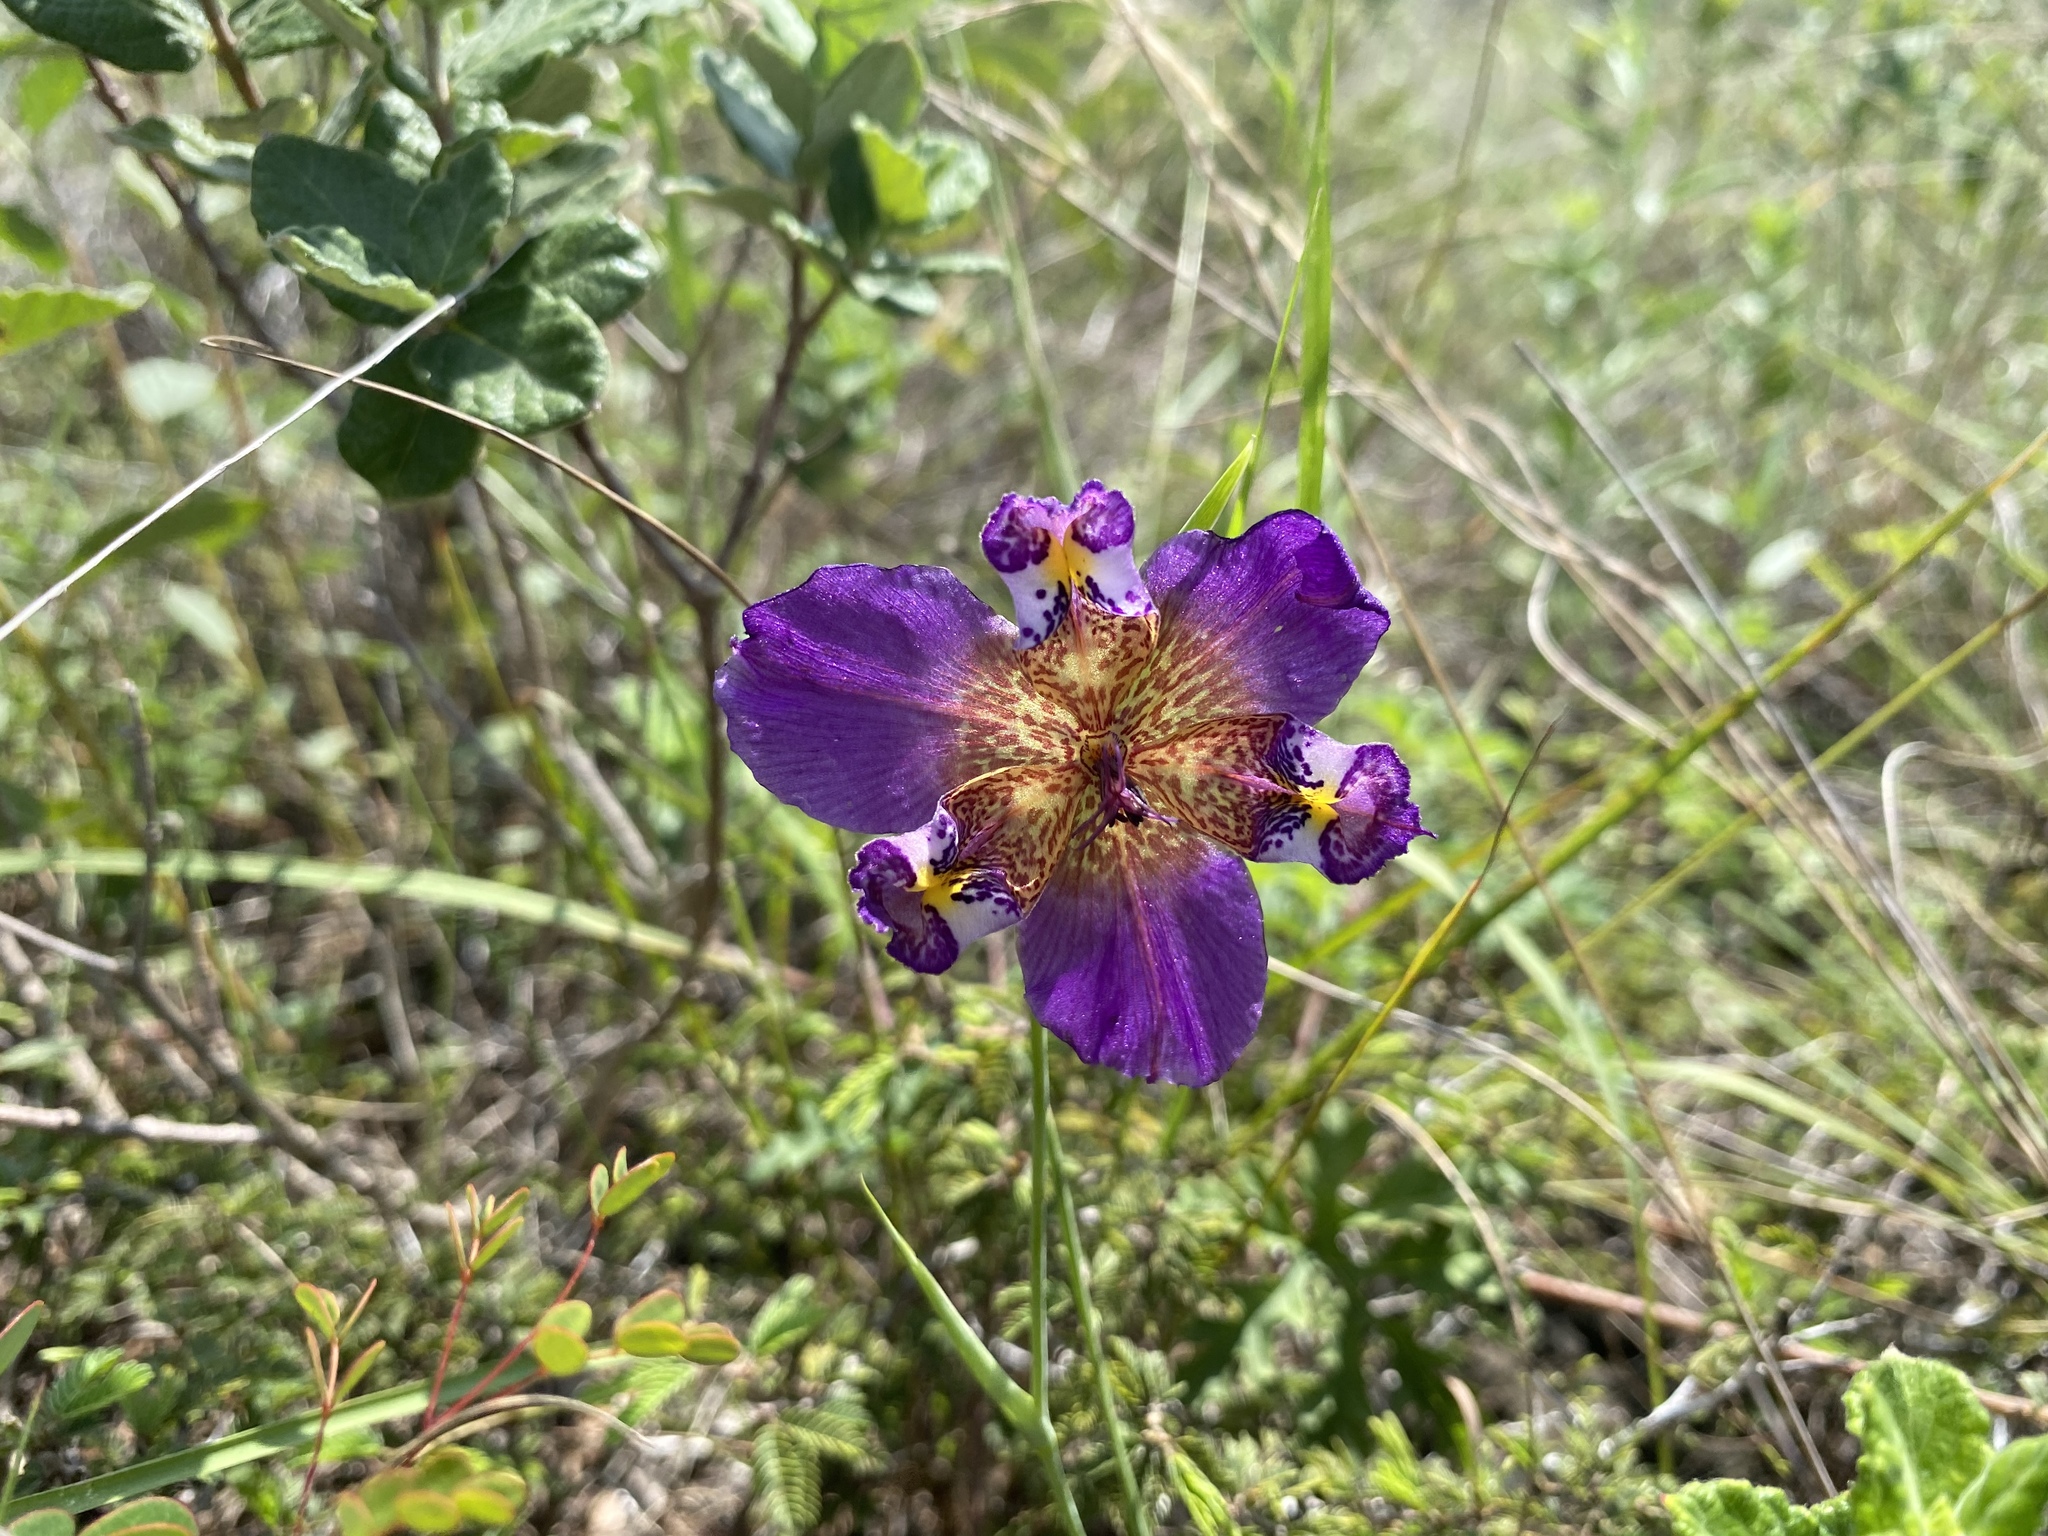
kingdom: Plantae
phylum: Tracheophyta
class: Liliopsida
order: Asparagales
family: Iridaceae
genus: Alophia
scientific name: Alophia drummondii
